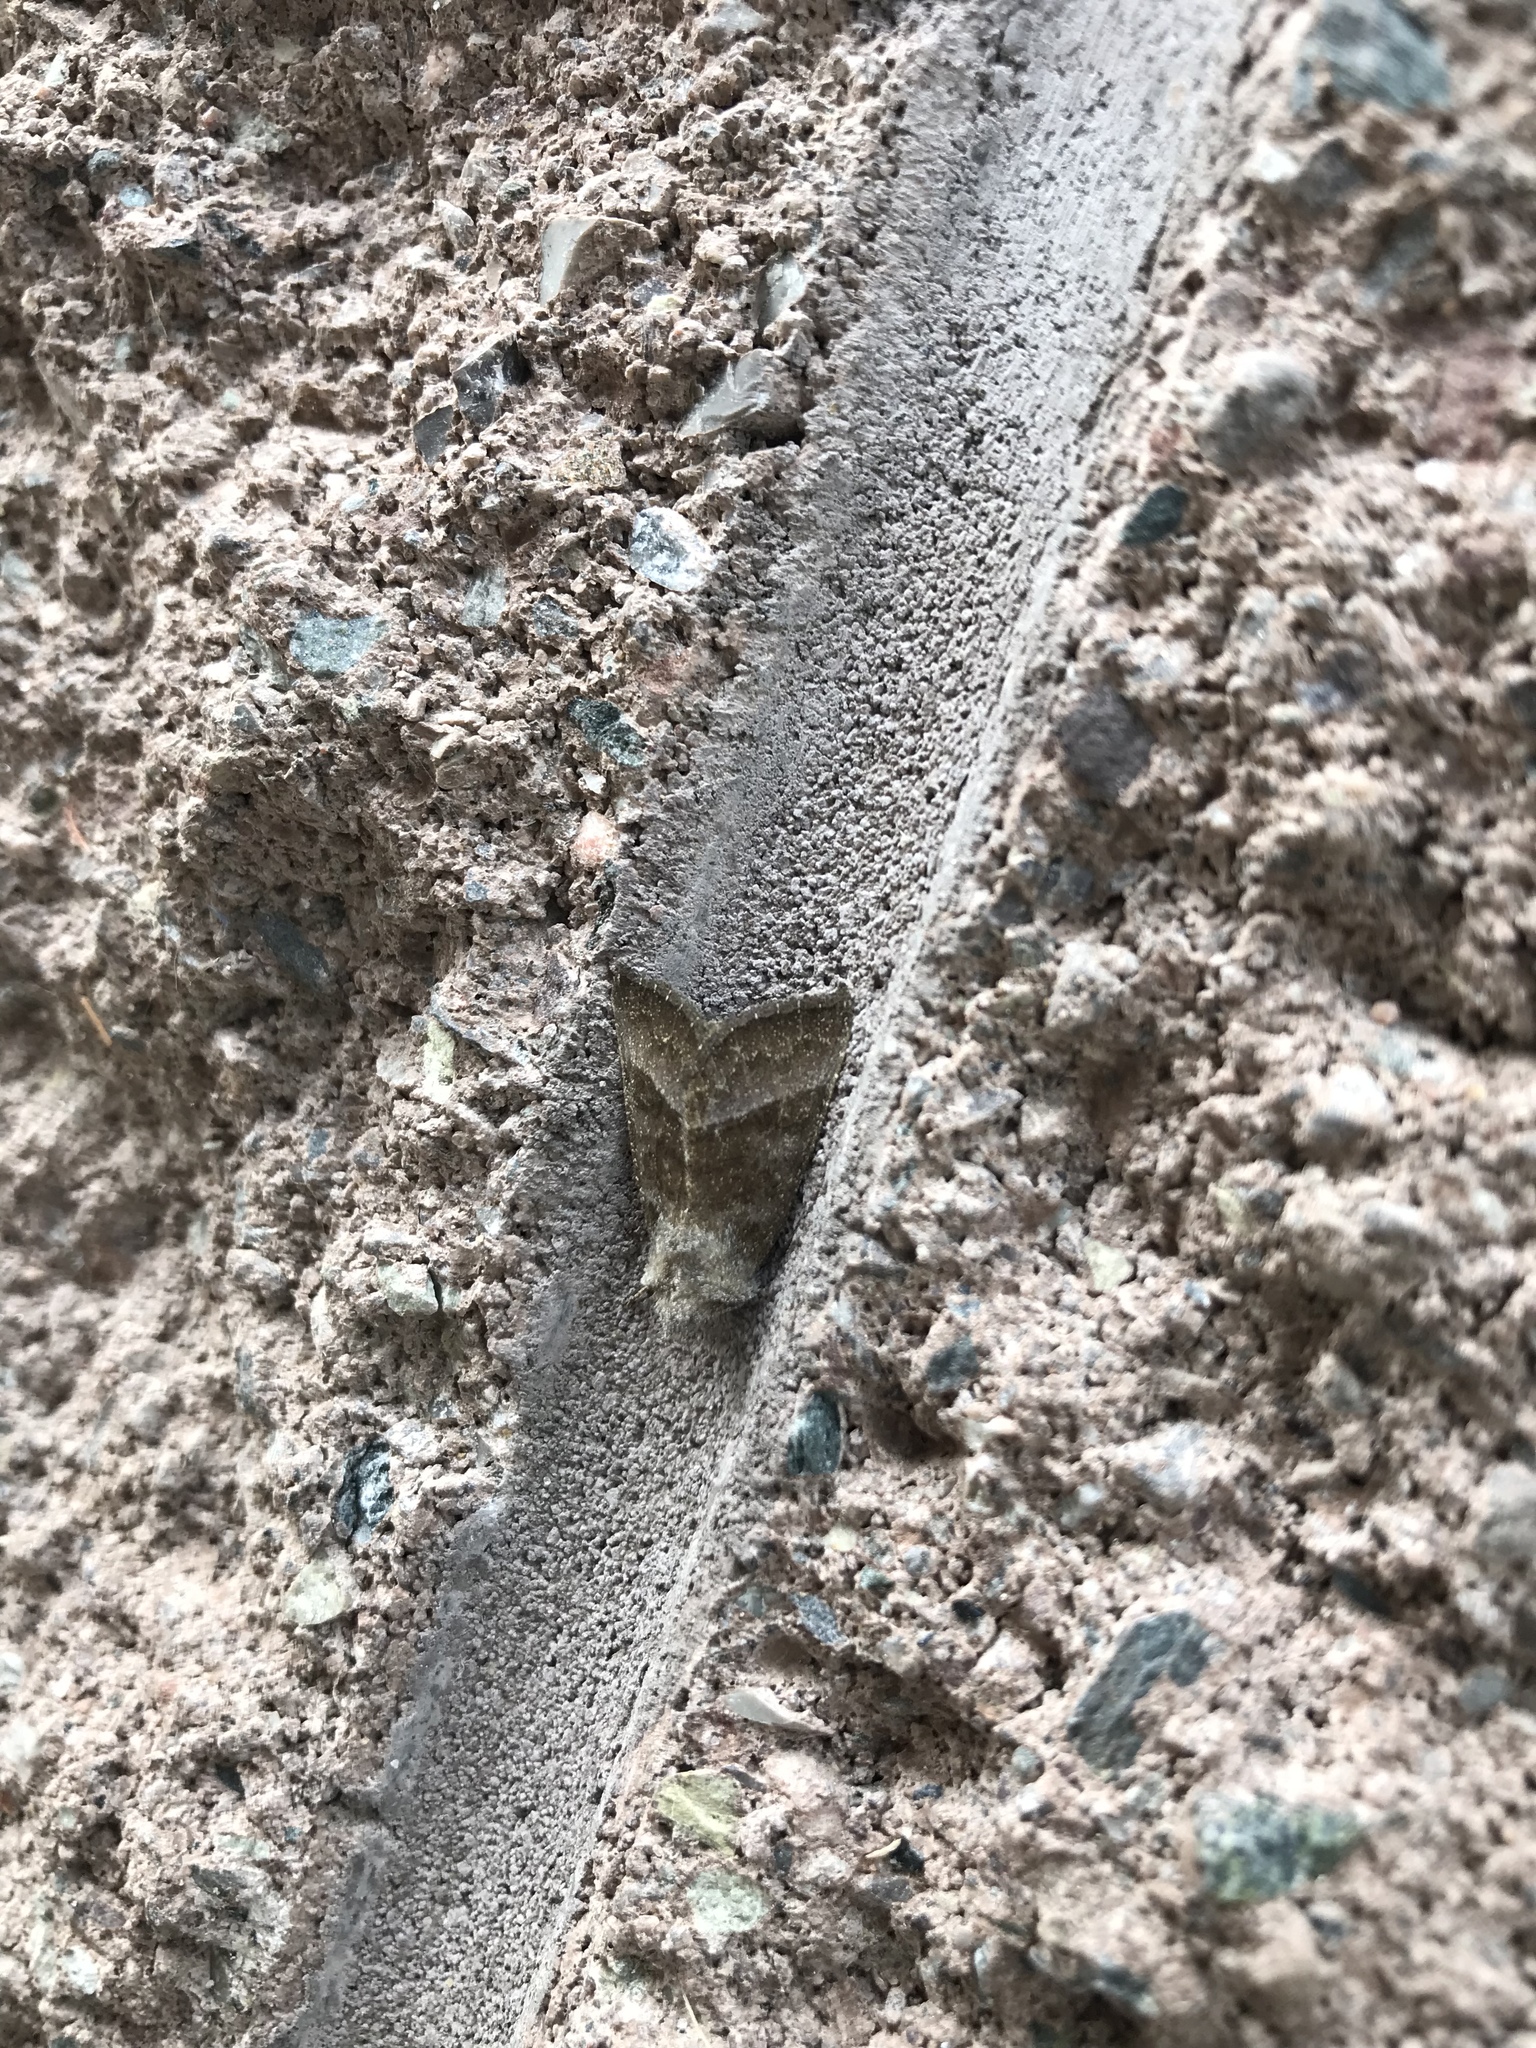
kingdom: Animalia
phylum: Arthropoda
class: Insecta
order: Lepidoptera
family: Noctuidae
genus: Papaipema
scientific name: Papaipema eupatorii
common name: Eupatorium borer moth
